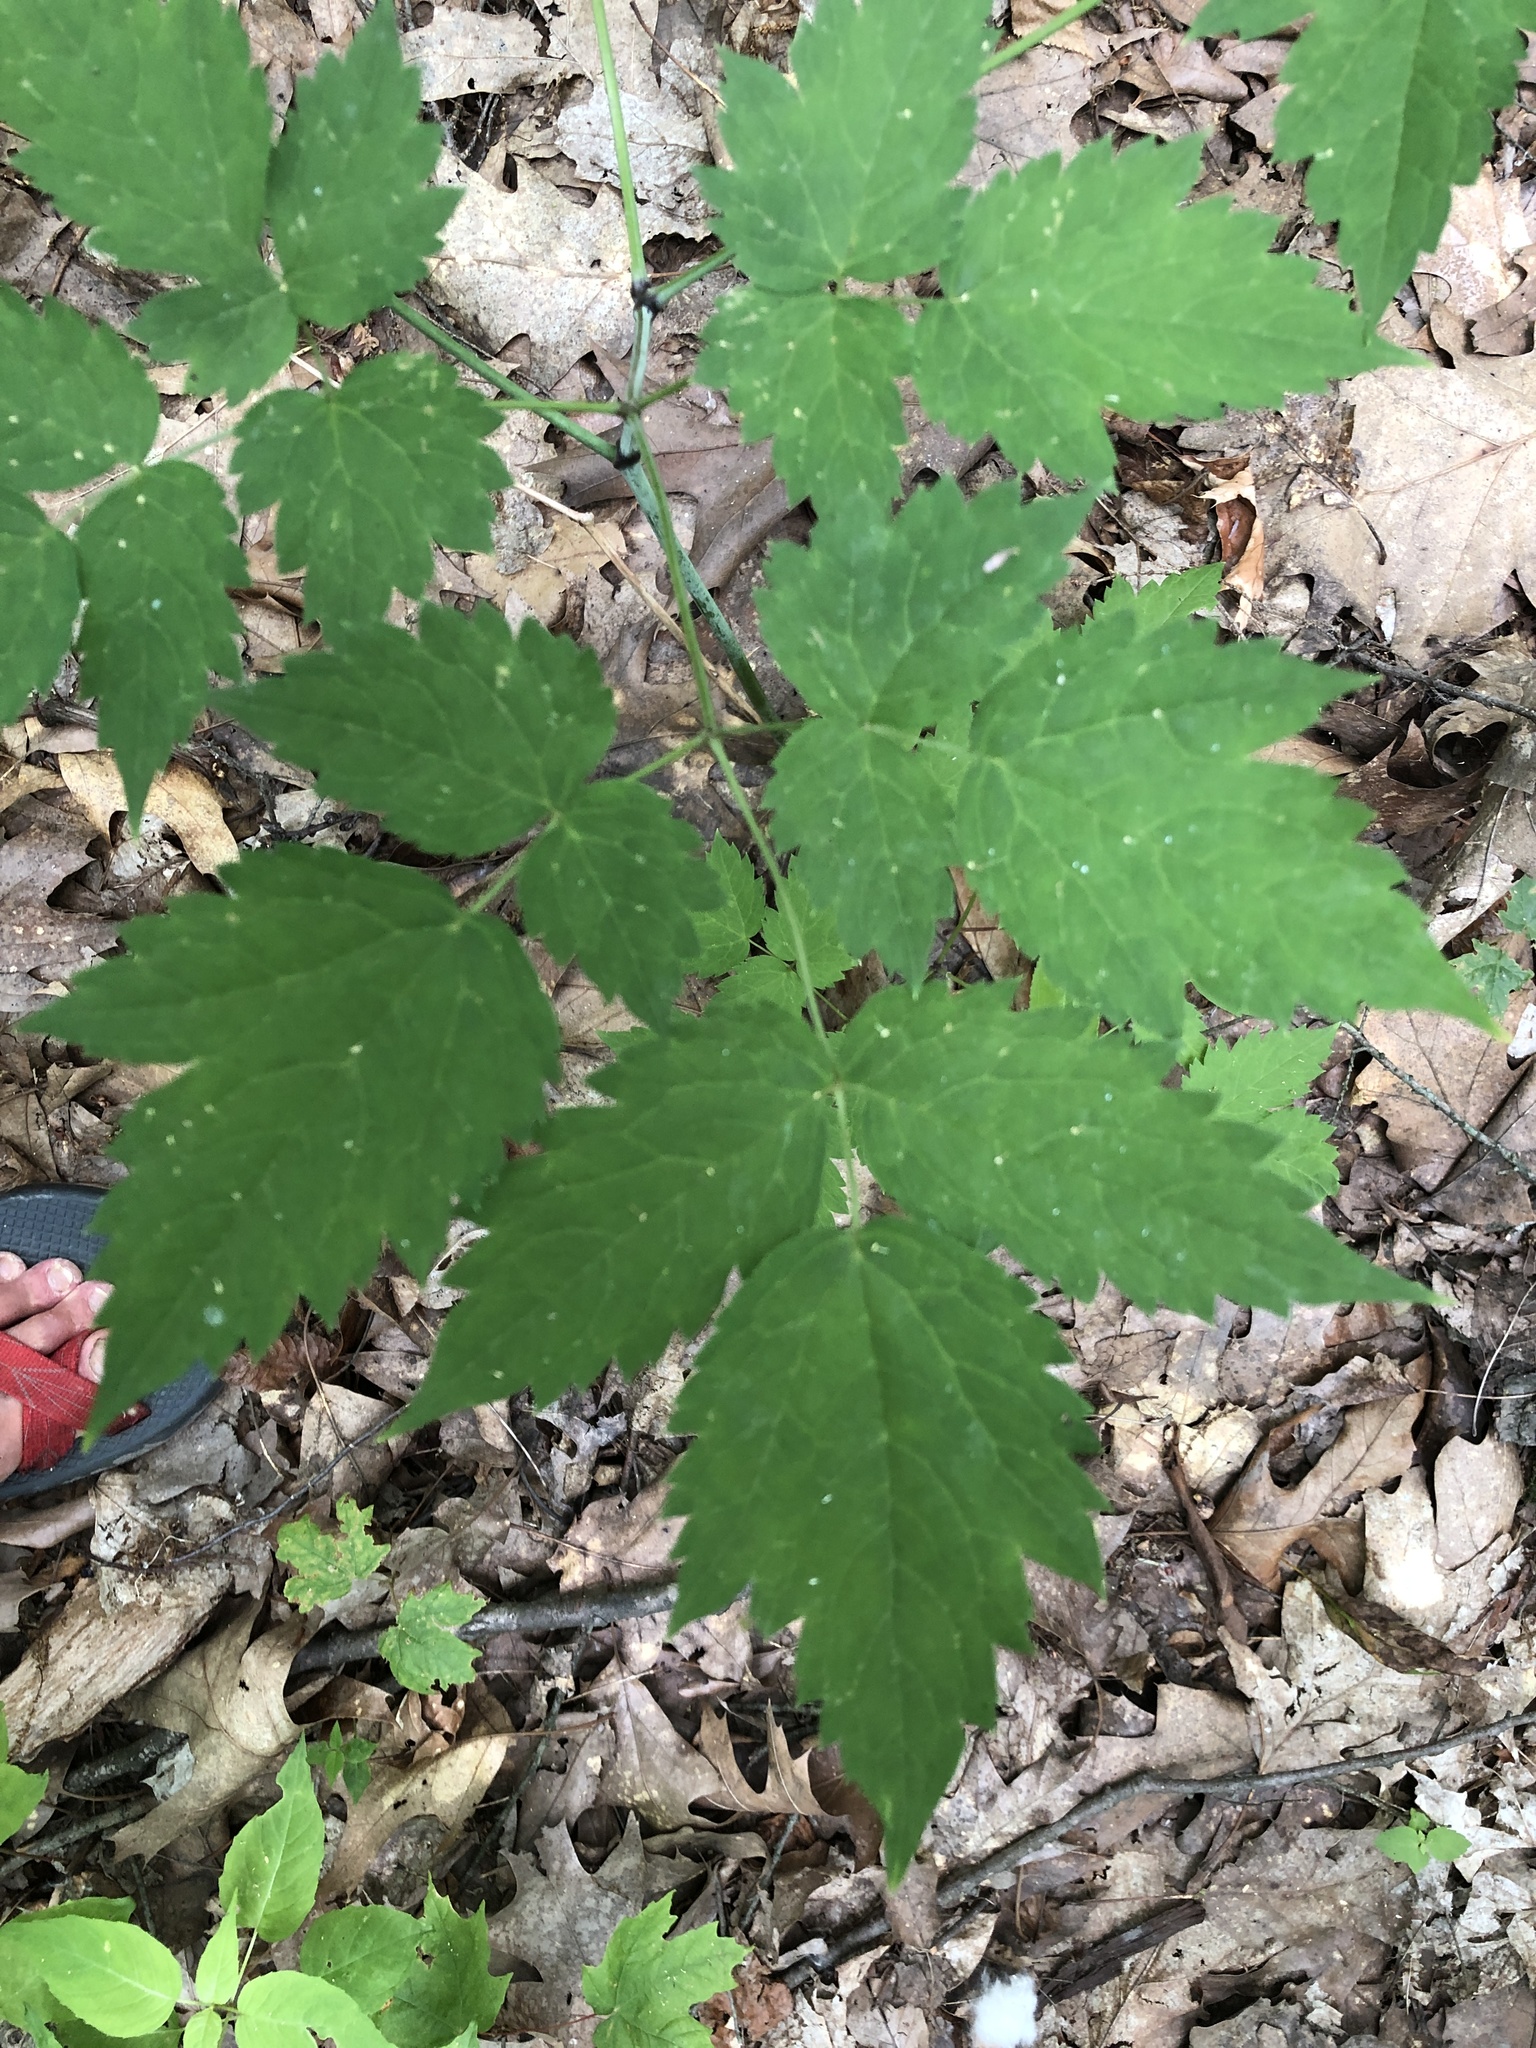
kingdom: Plantae
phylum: Tracheophyta
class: Magnoliopsida
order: Ranunculales
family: Ranunculaceae
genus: Actaea
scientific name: Actaea pachypoda
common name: Doll's-eyes
